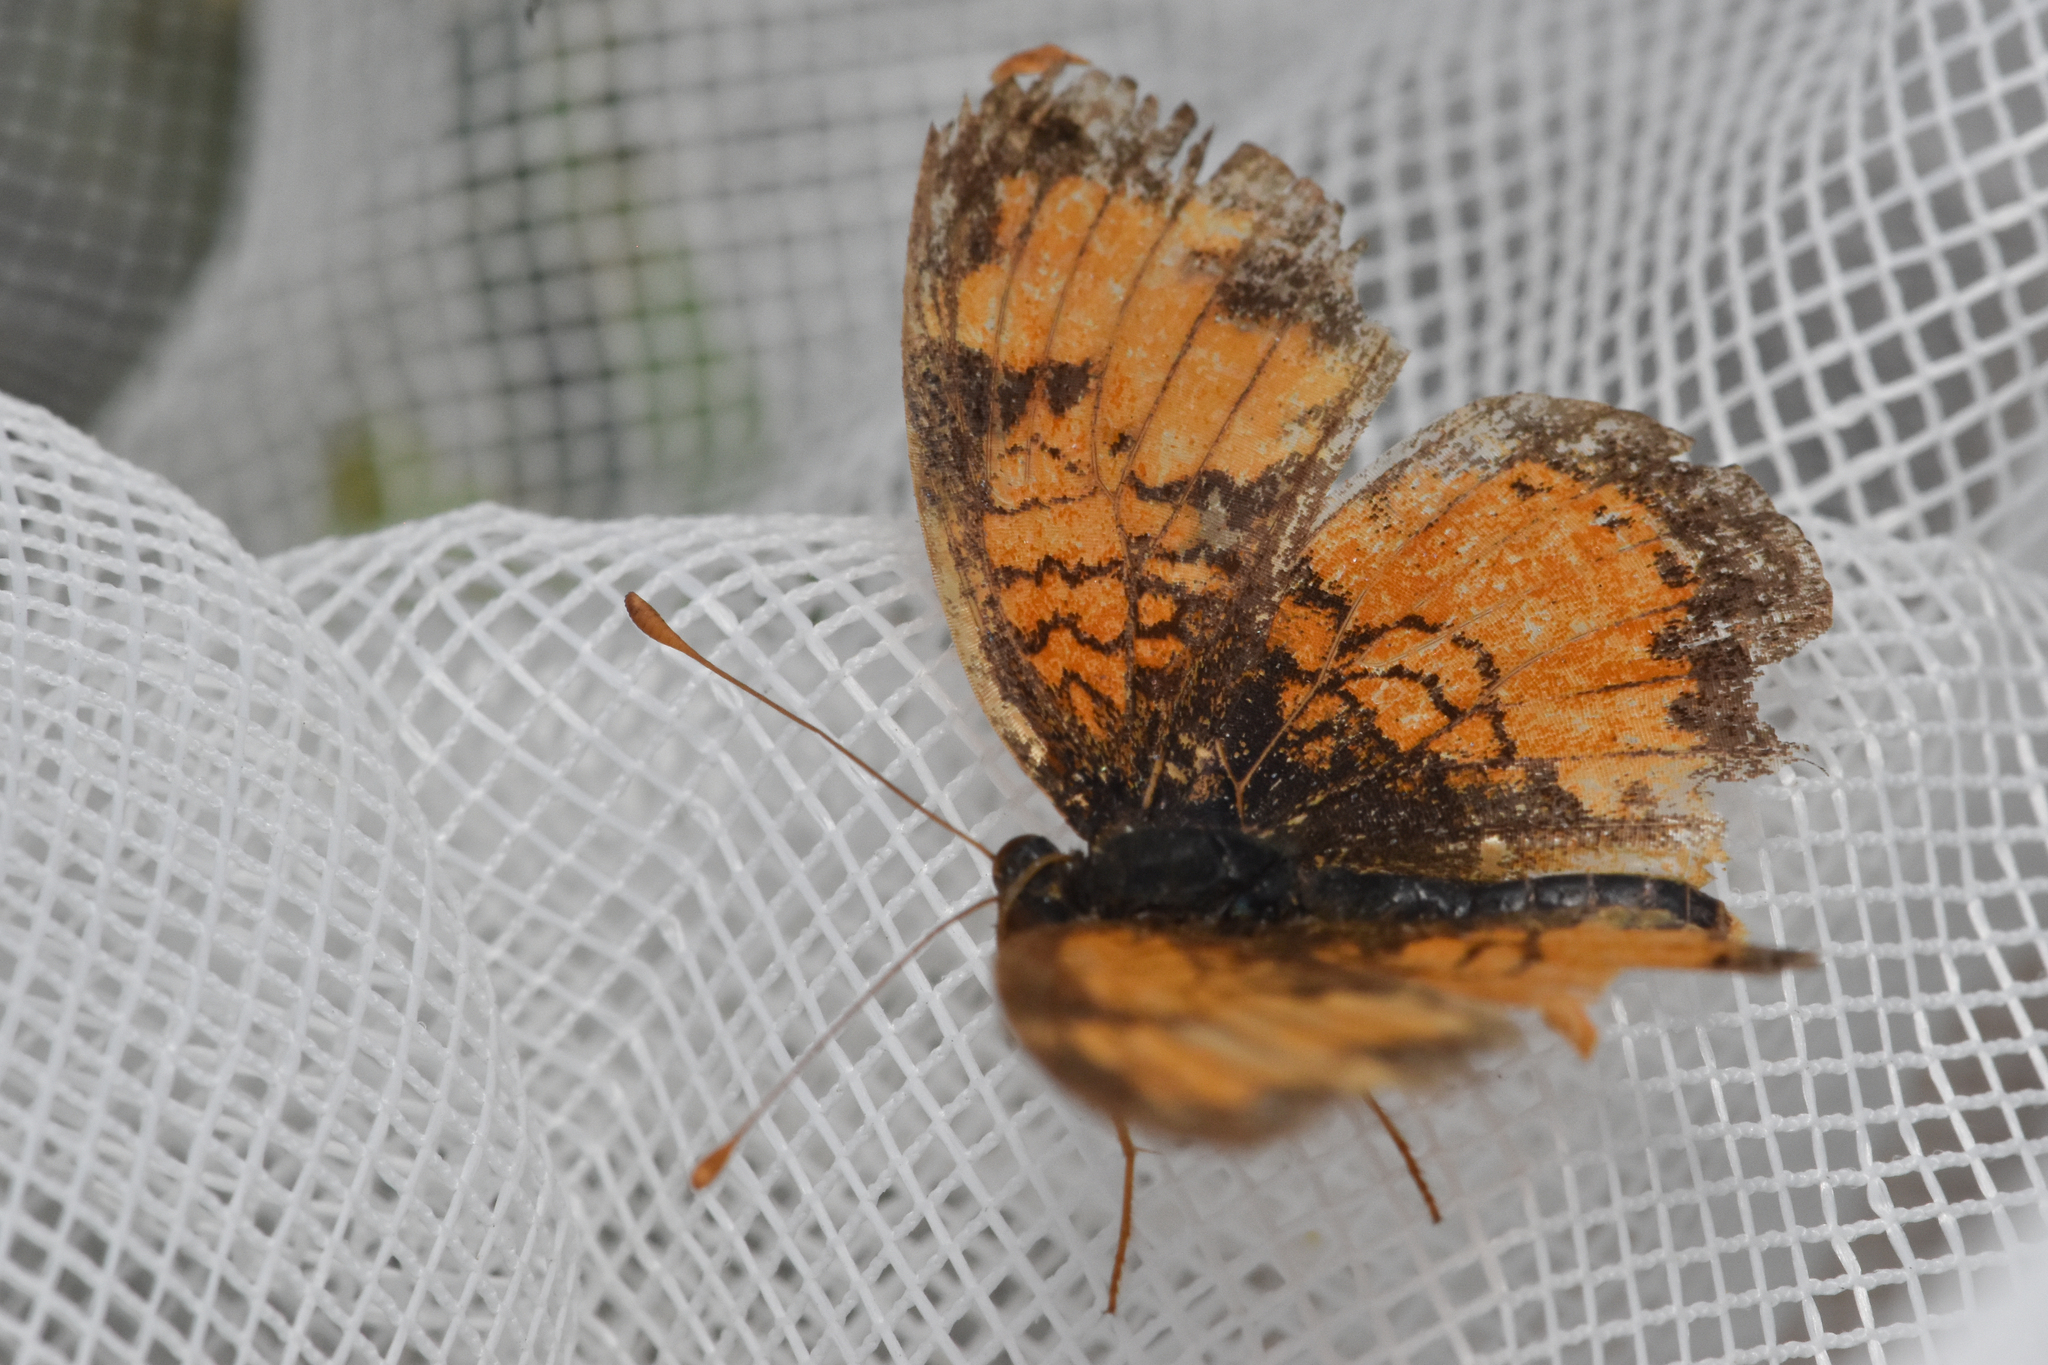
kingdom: Animalia
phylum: Arthropoda
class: Insecta
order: Lepidoptera
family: Nymphalidae
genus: Phyciodes
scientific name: Phyciodes tharos
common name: Pearl crescent
